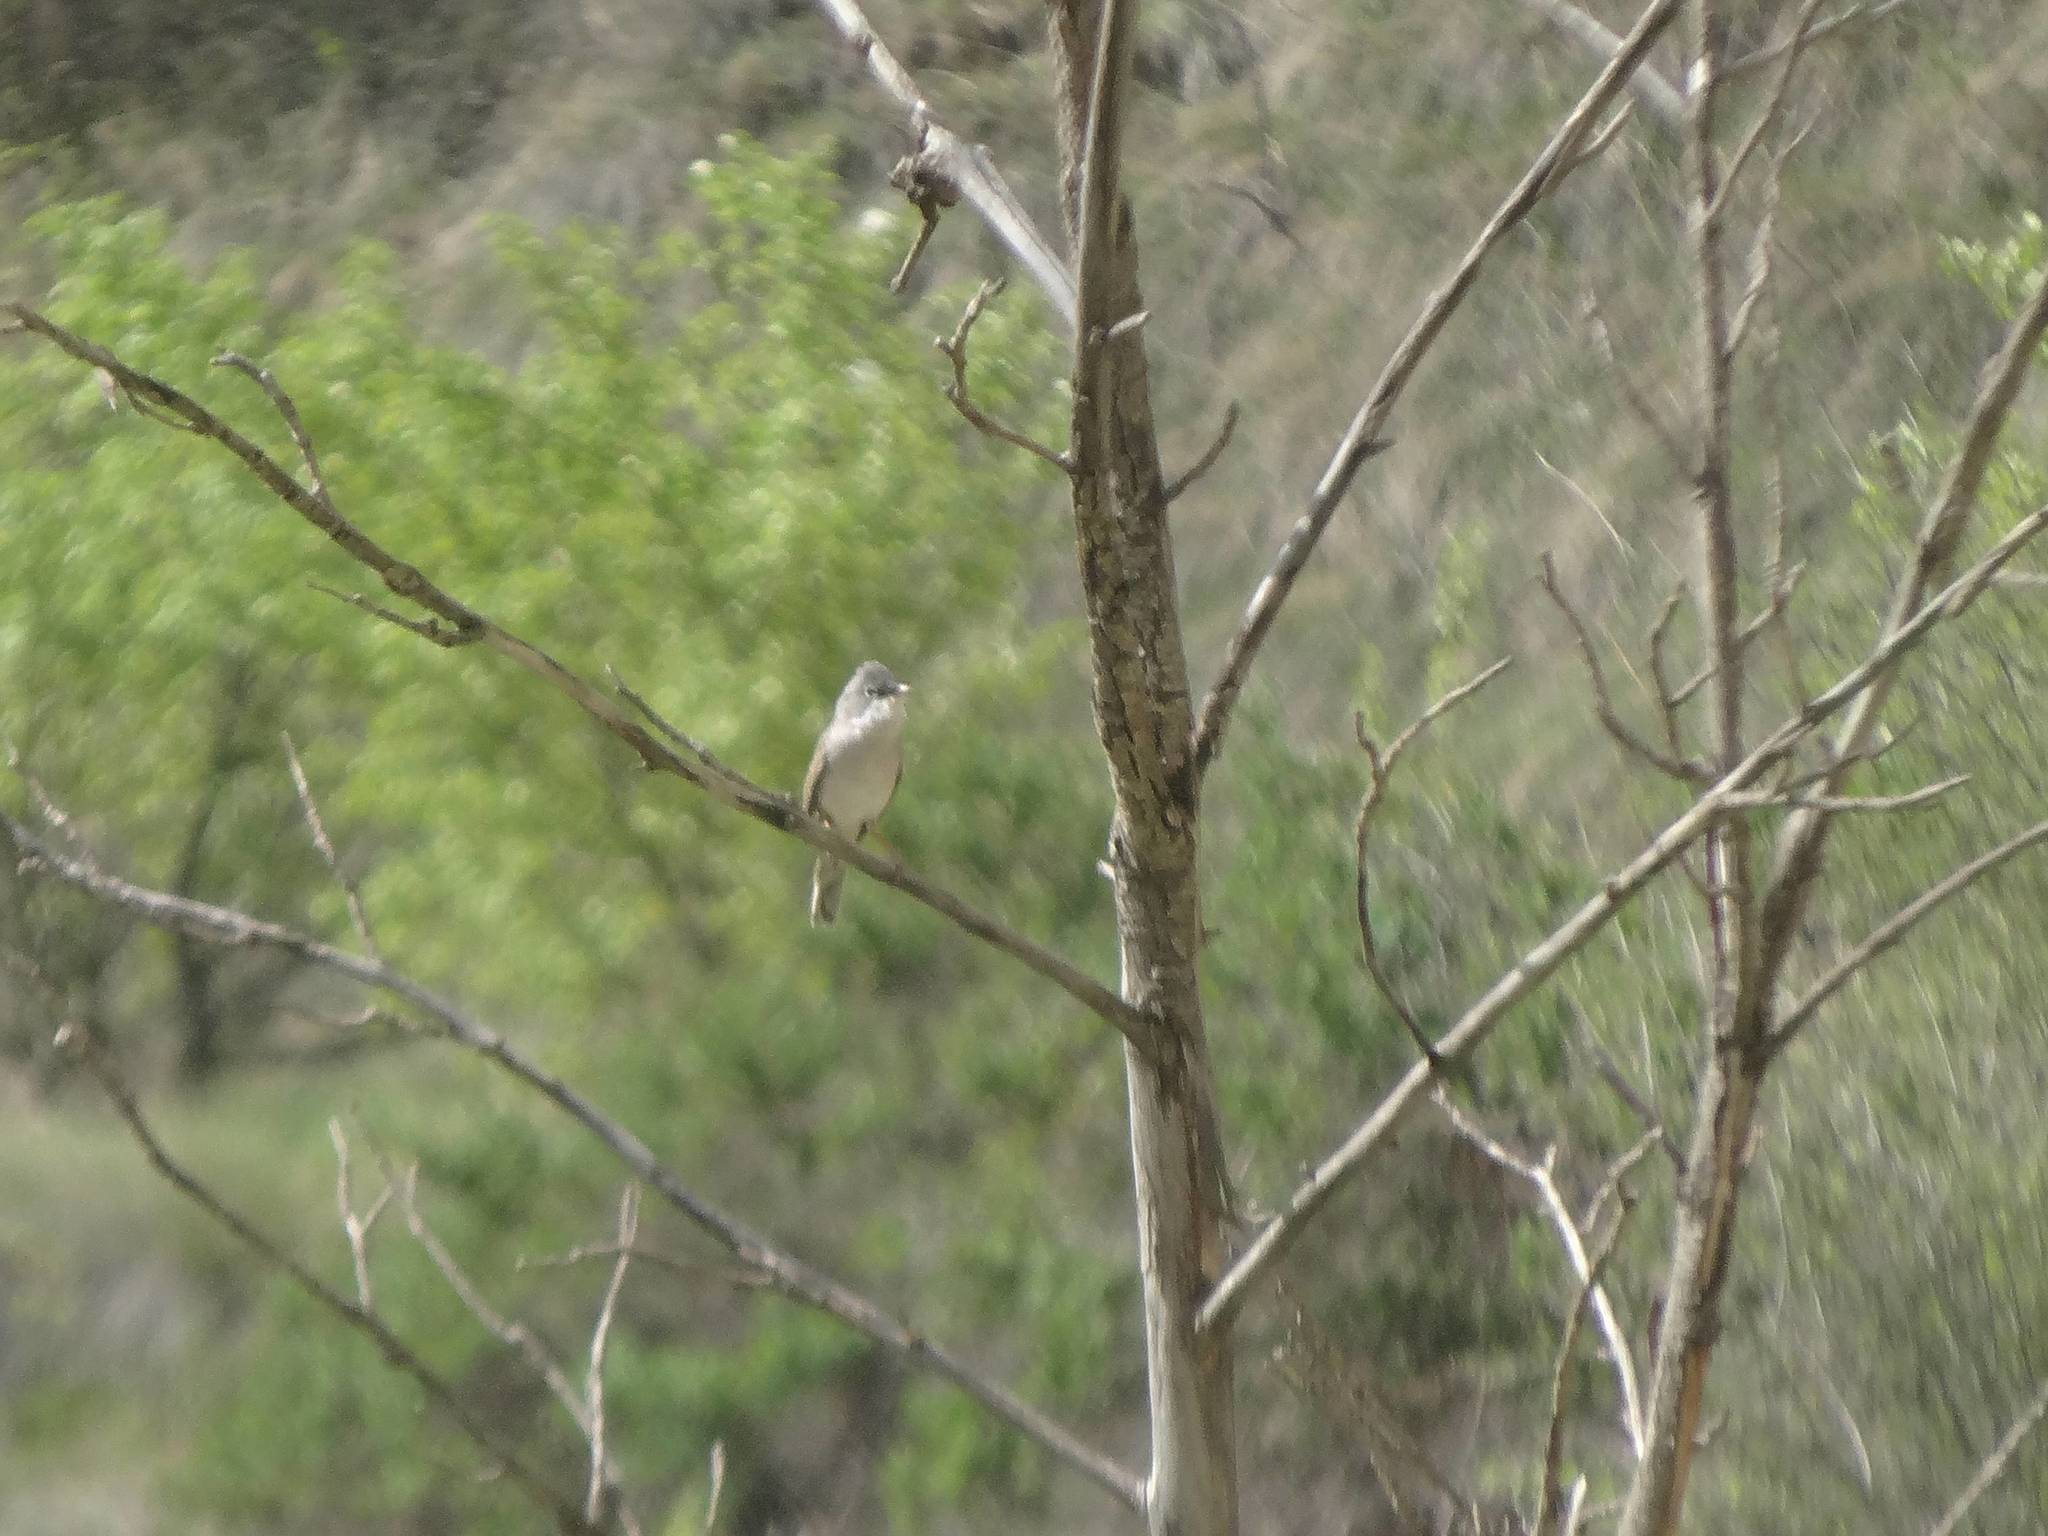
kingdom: Animalia
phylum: Chordata
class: Aves
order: Passeriformes
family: Sylviidae
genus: Sylvia
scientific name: Sylvia communis
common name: Common whitethroat
